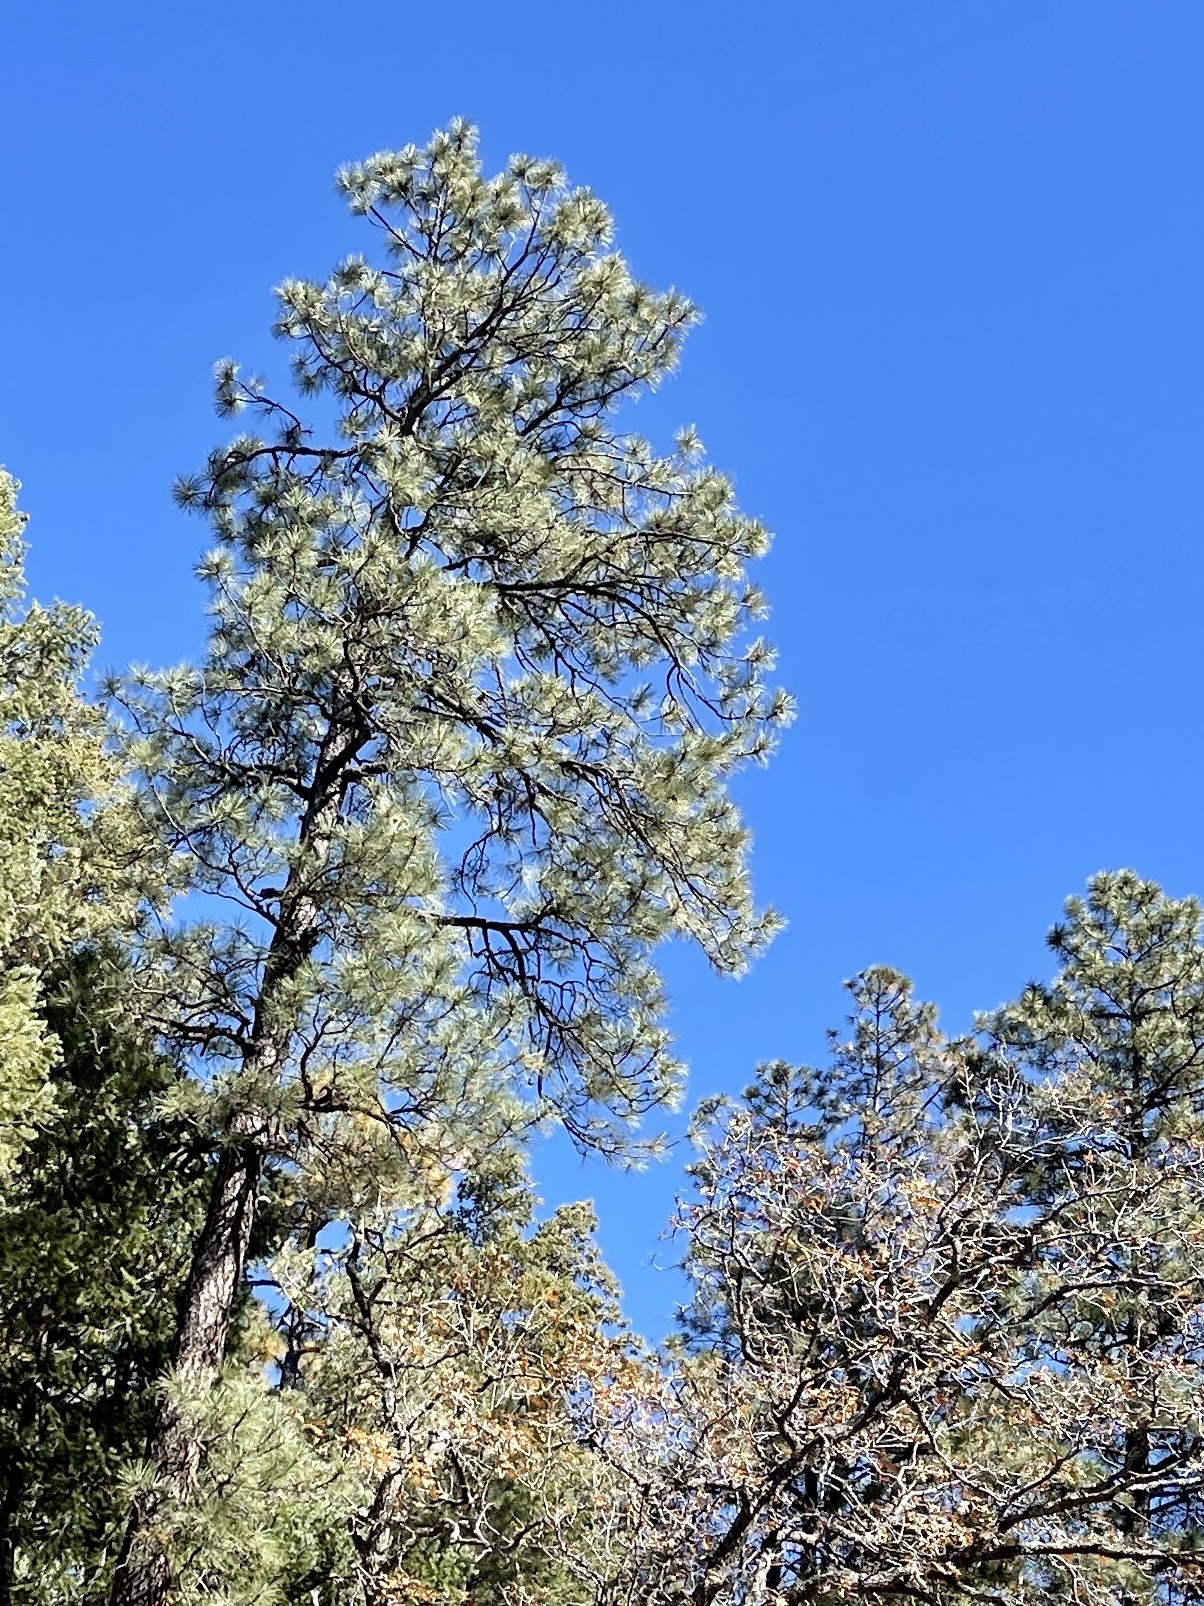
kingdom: Plantae
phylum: Tracheophyta
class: Pinopsida
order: Pinales
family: Pinaceae
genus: Pinus
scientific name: Pinus ponderosa
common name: Western yellow-pine
